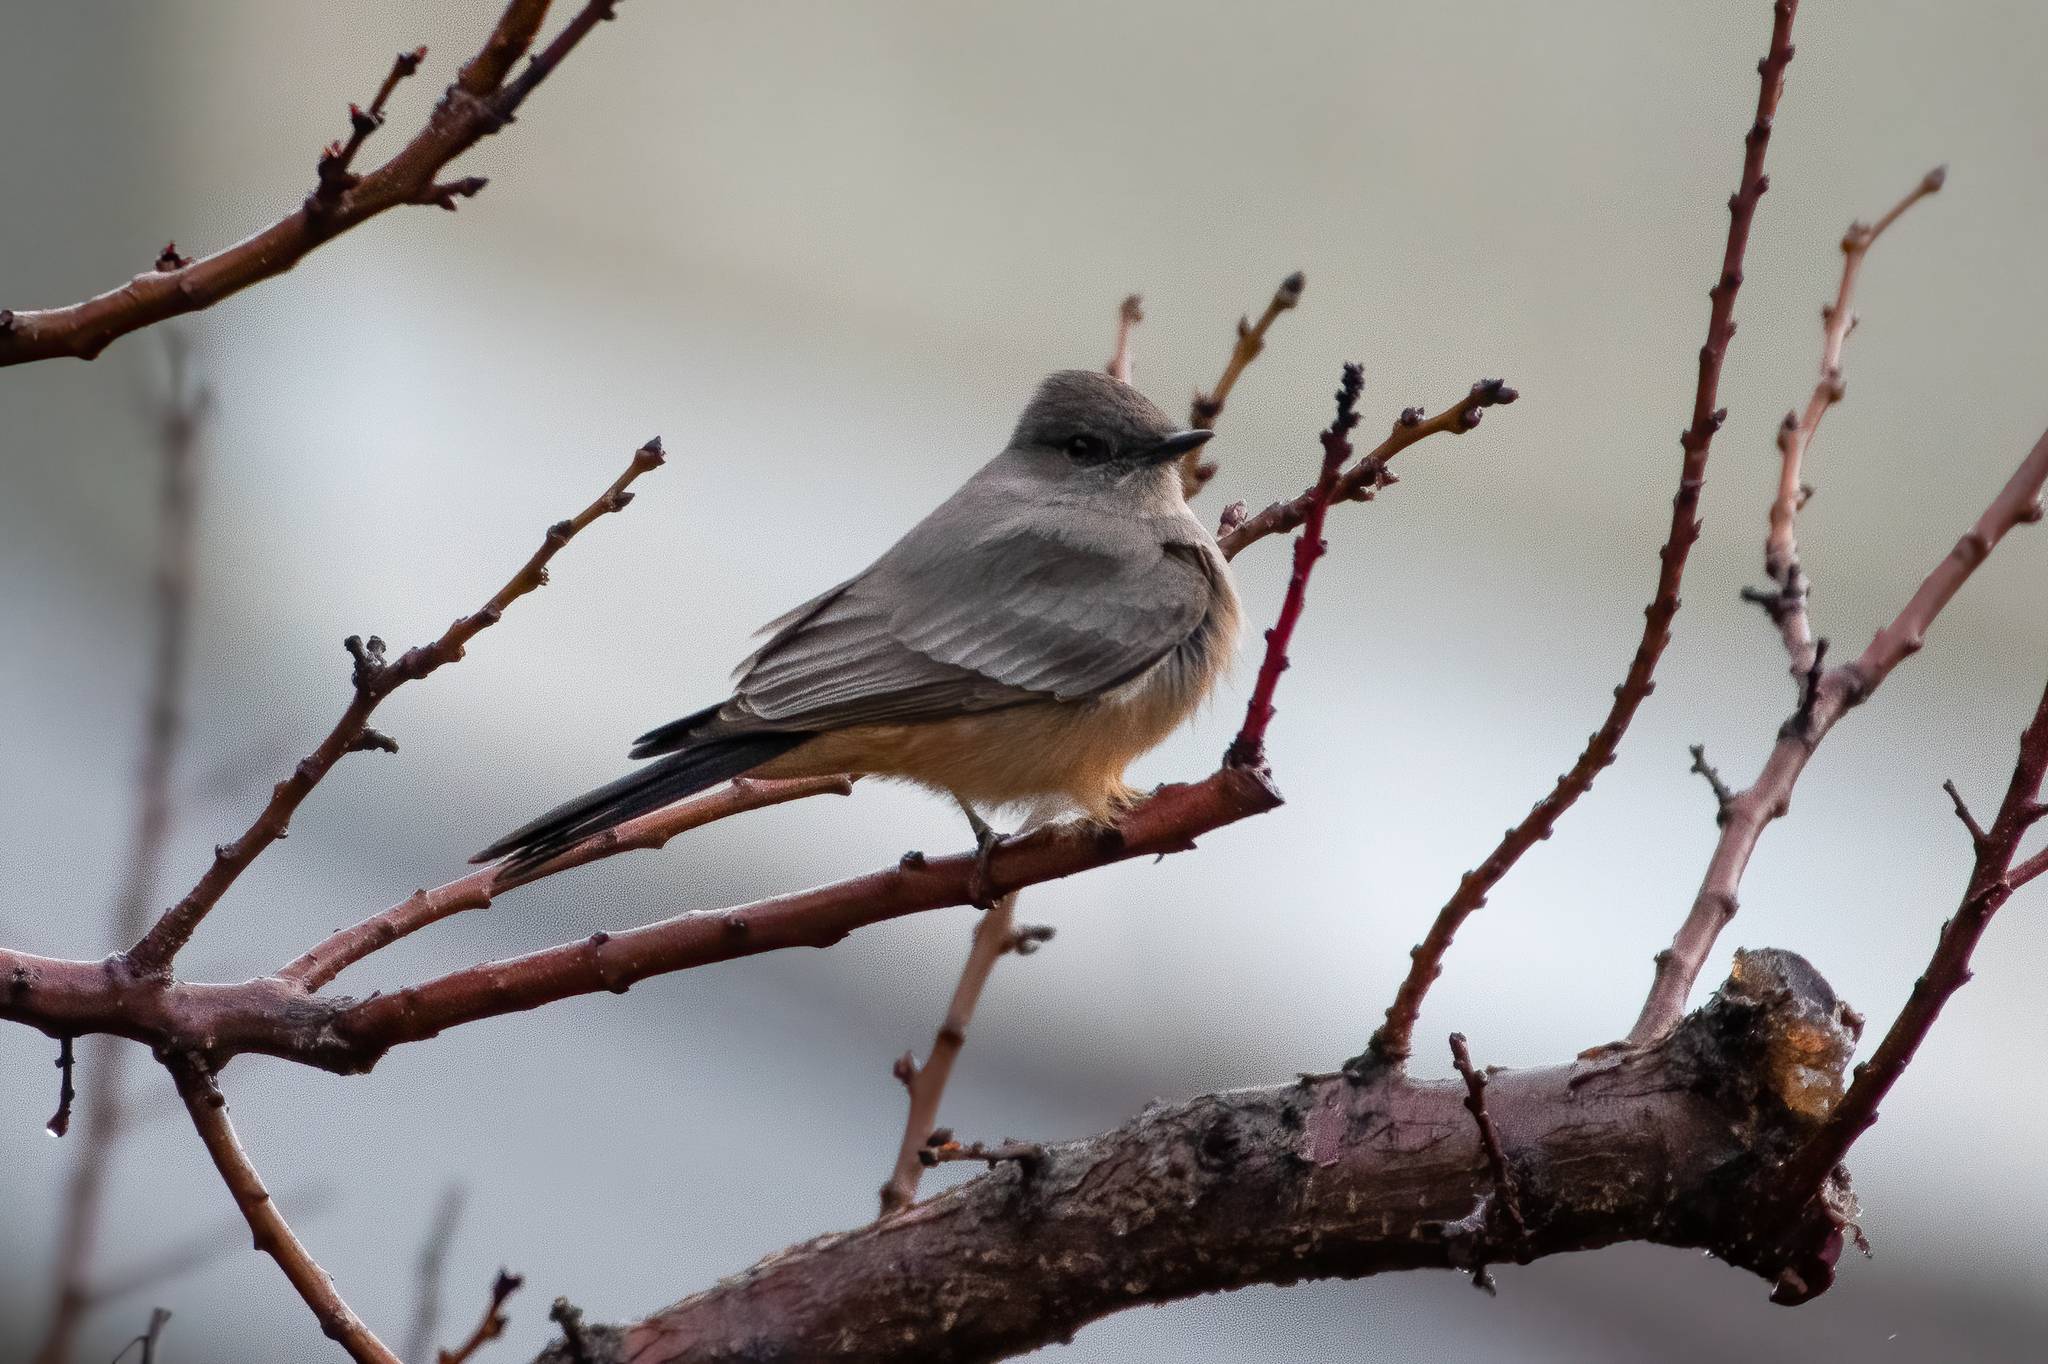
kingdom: Animalia
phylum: Chordata
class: Aves
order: Passeriformes
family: Tyrannidae
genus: Sayornis
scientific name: Sayornis saya
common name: Say's phoebe
